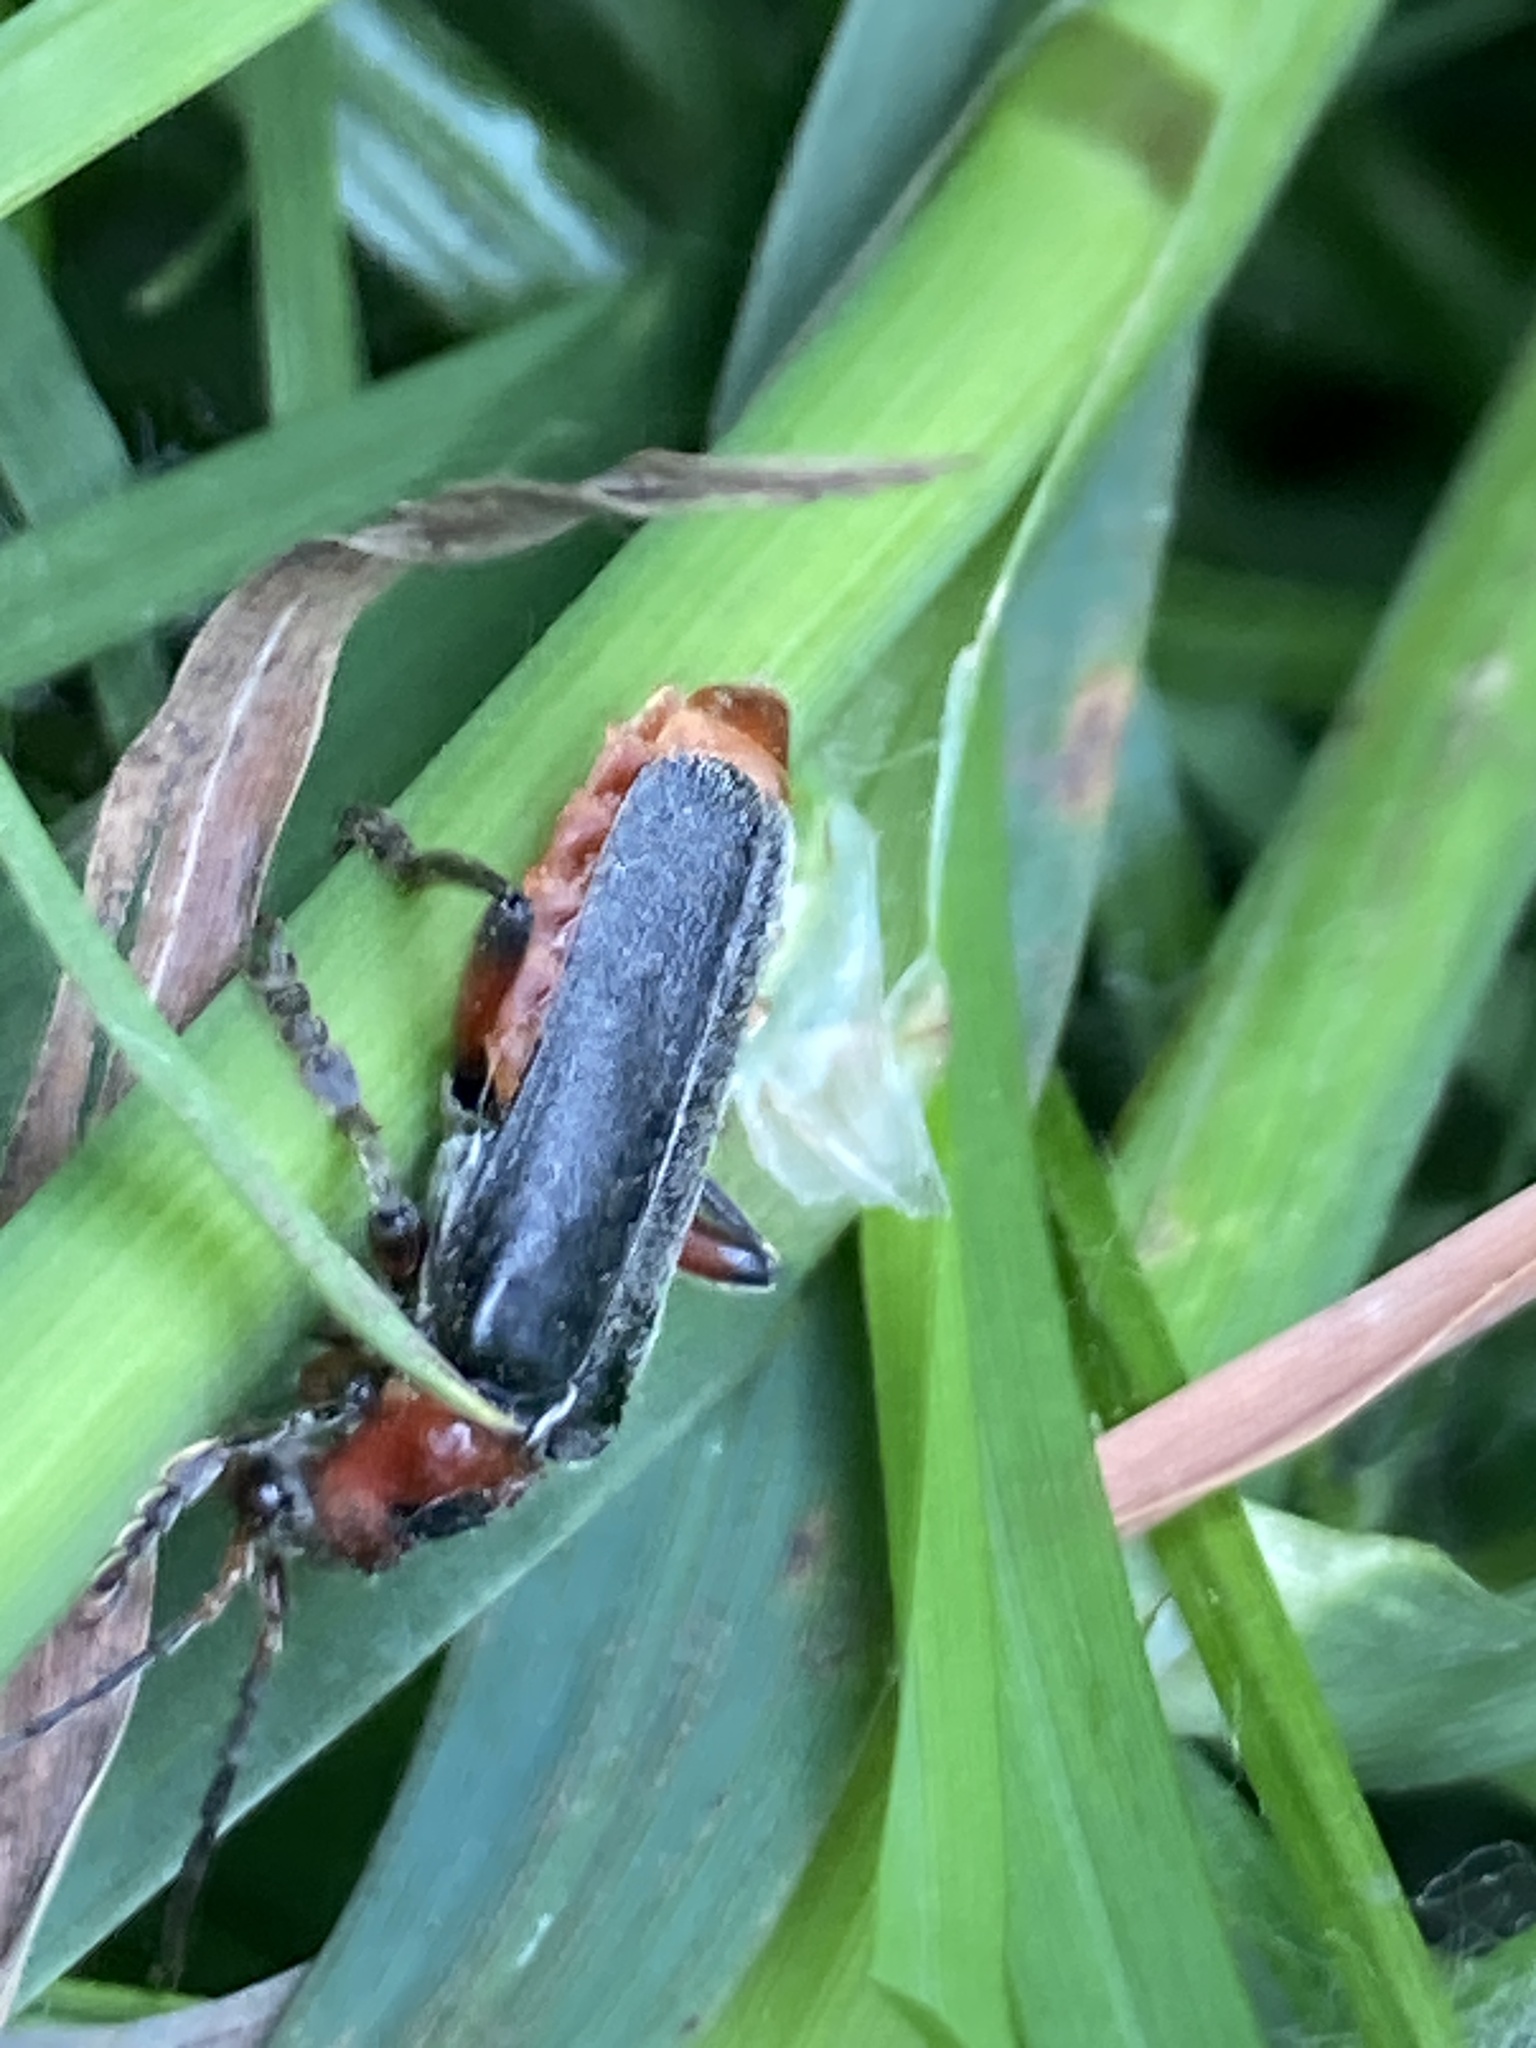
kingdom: Animalia
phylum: Arthropoda
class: Insecta
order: Coleoptera
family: Cantharidae
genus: Cantharis
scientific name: Cantharis rustica
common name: Soldier beetle
